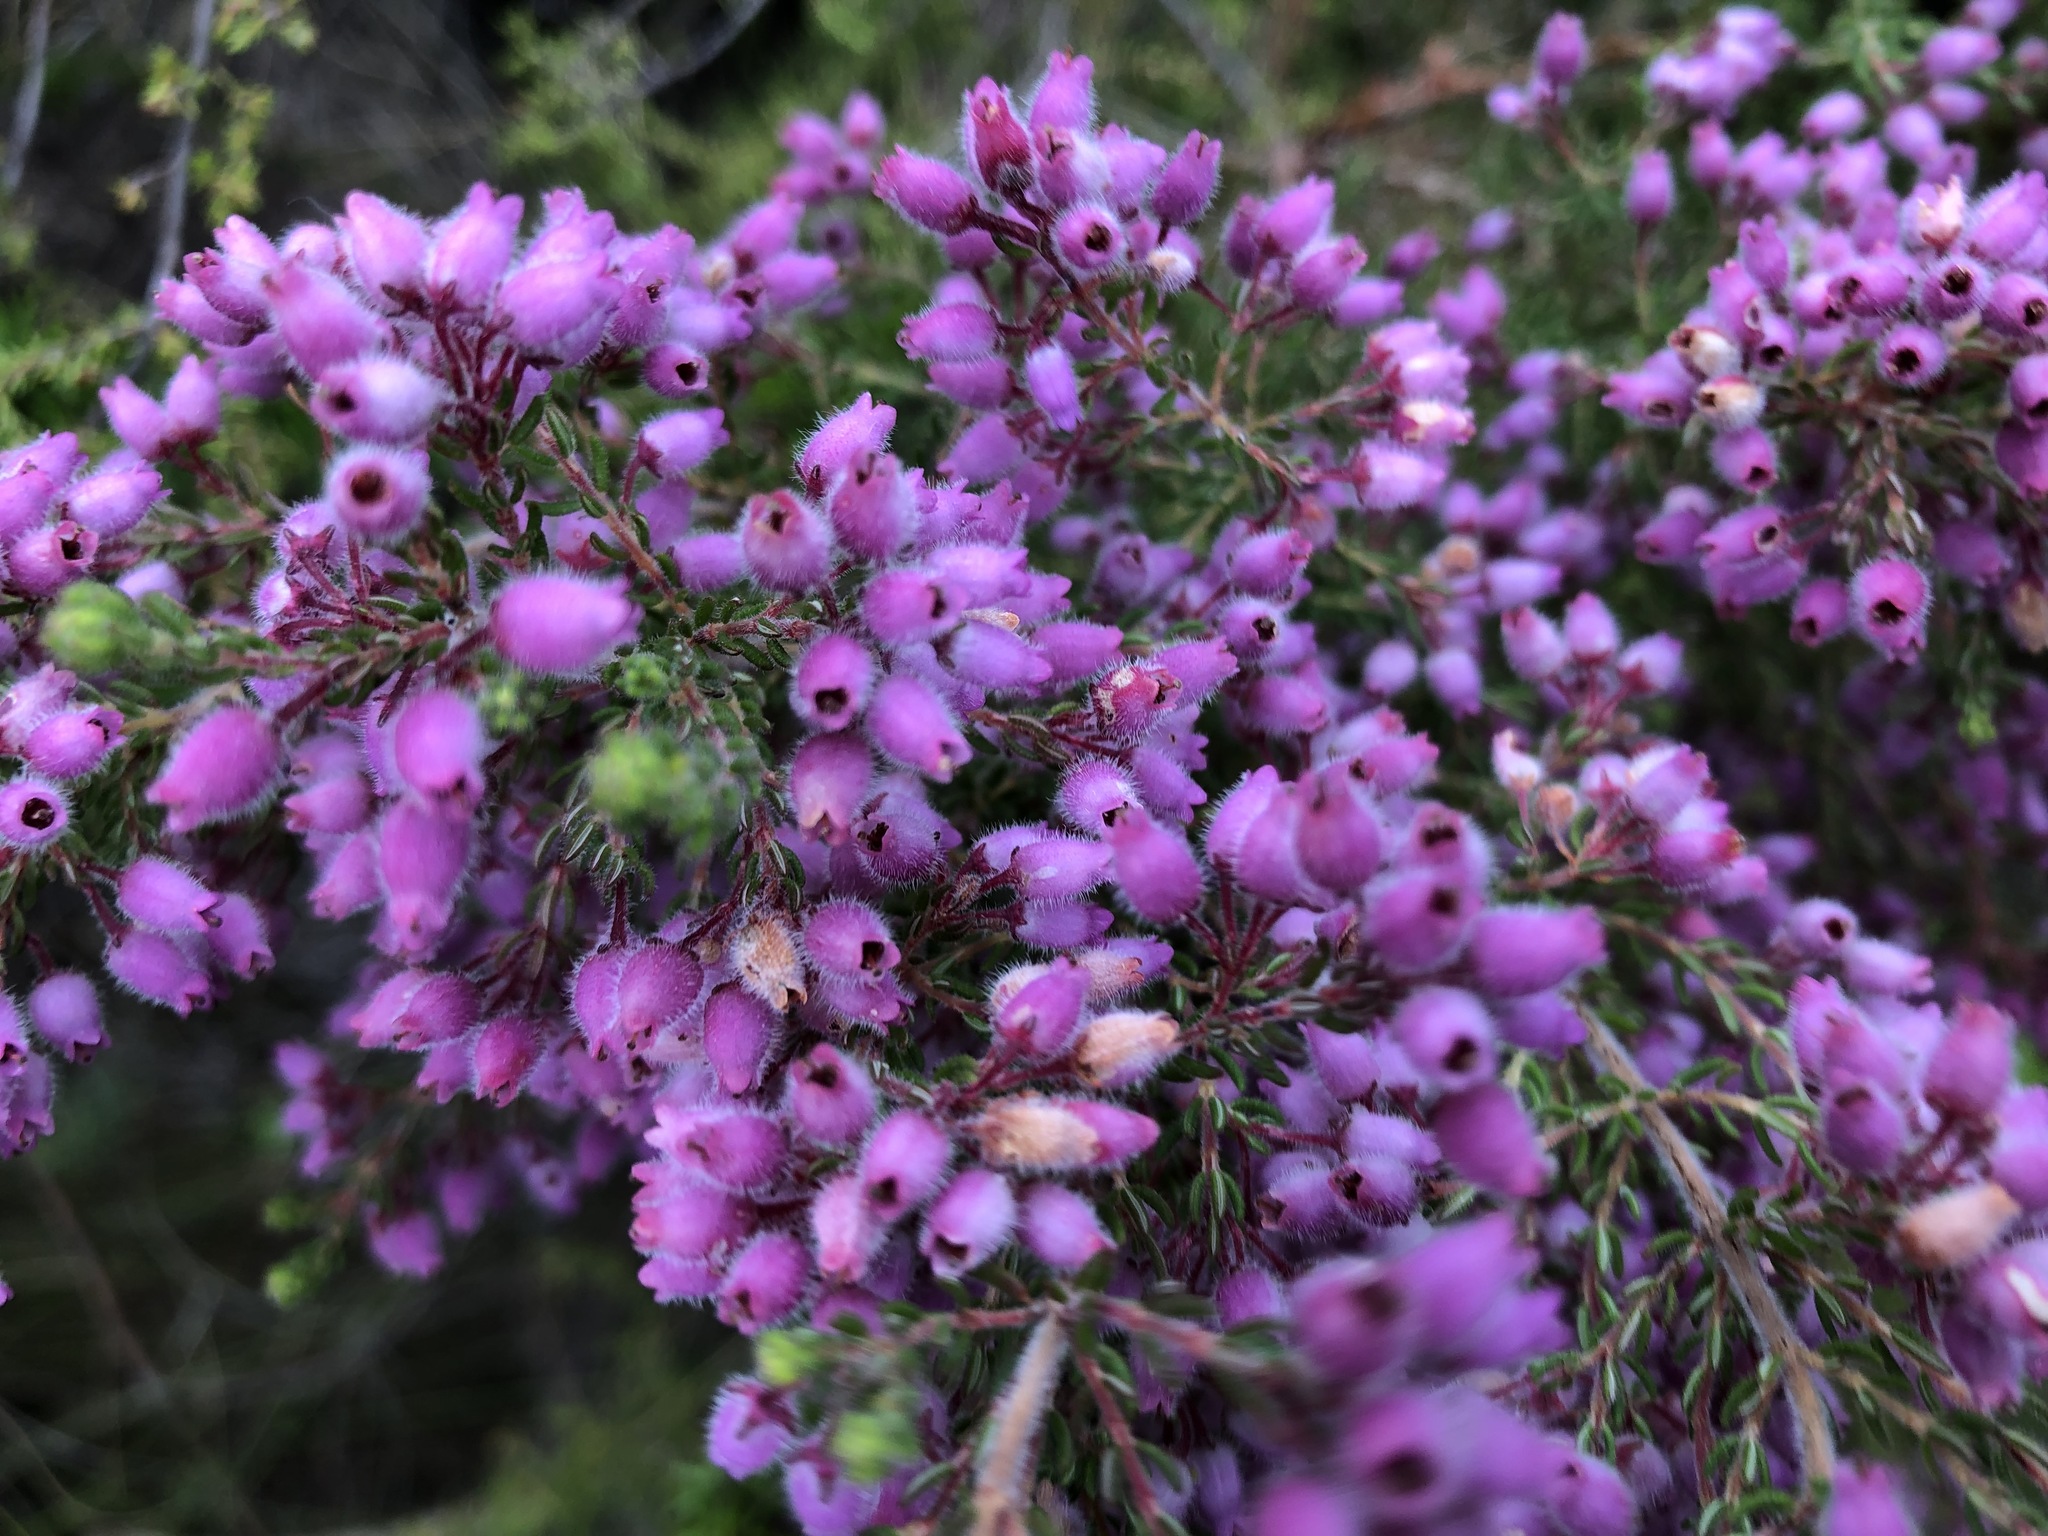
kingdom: Plantae
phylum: Tracheophyta
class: Magnoliopsida
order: Ericales
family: Ericaceae
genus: Erica
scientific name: Erica hirtiflora
